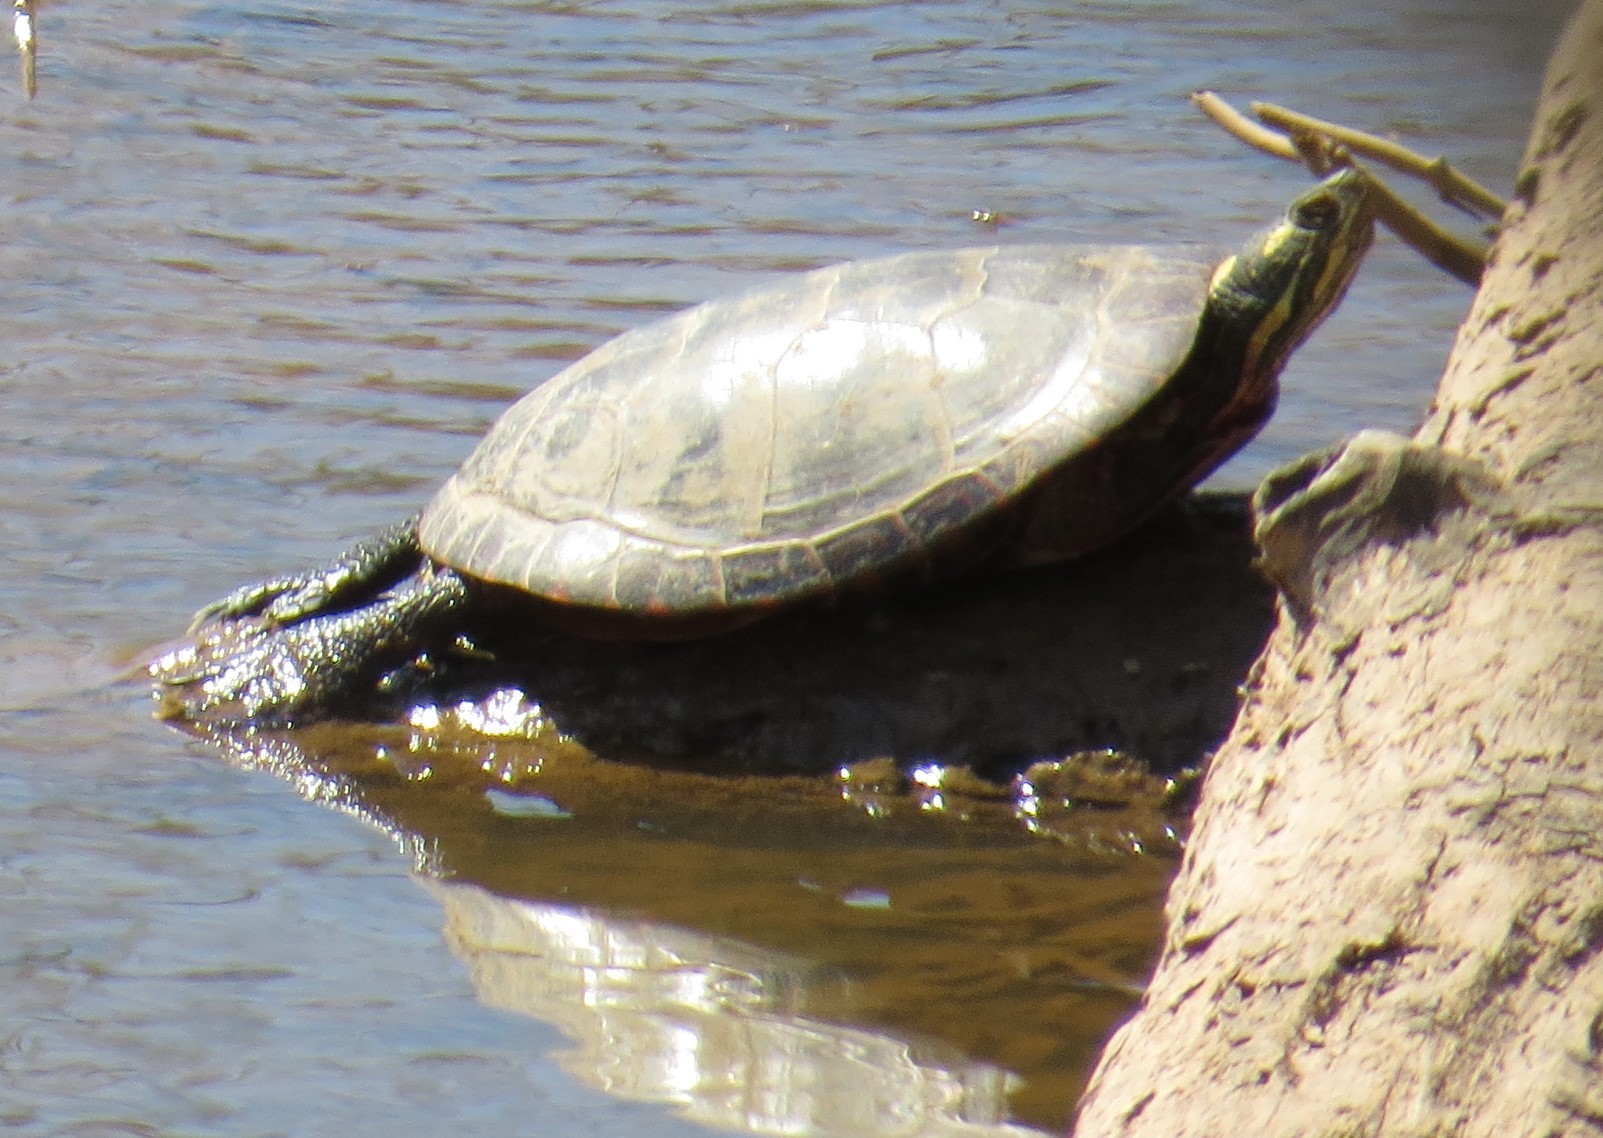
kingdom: Animalia
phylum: Chordata
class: Testudines
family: Emydidae
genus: Chrysemys
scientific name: Chrysemys picta
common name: Painted turtle
